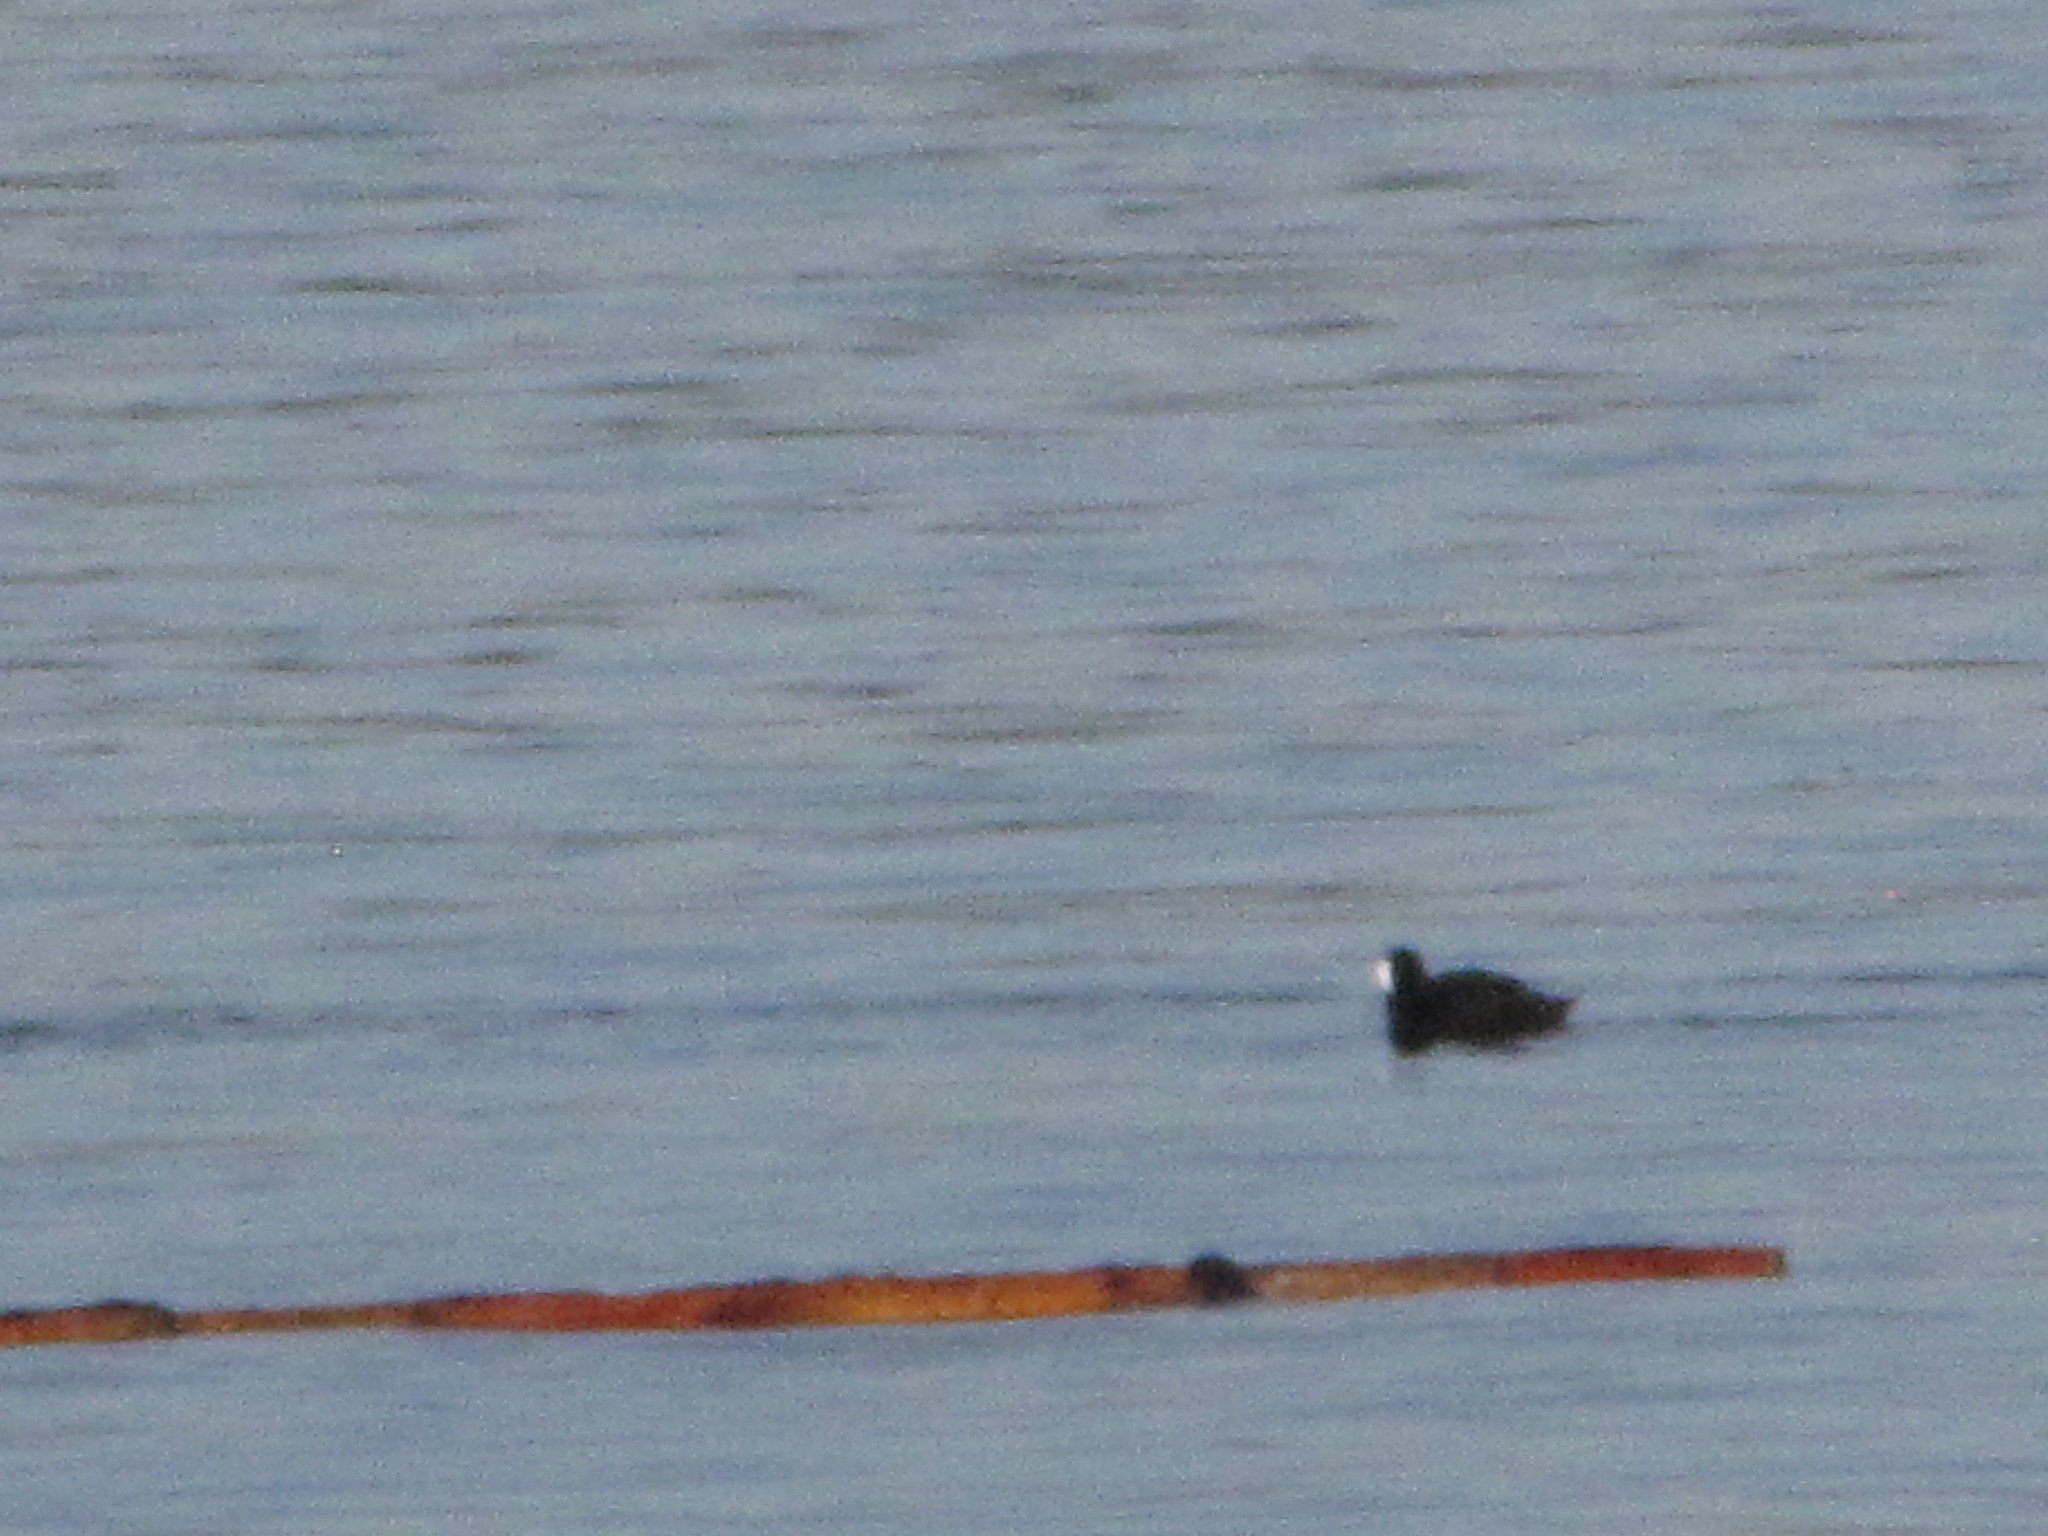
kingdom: Animalia
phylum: Chordata
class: Aves
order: Anseriformes
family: Anatidae
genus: Melanitta
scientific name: Melanitta perspicillata
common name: Surf scoter
